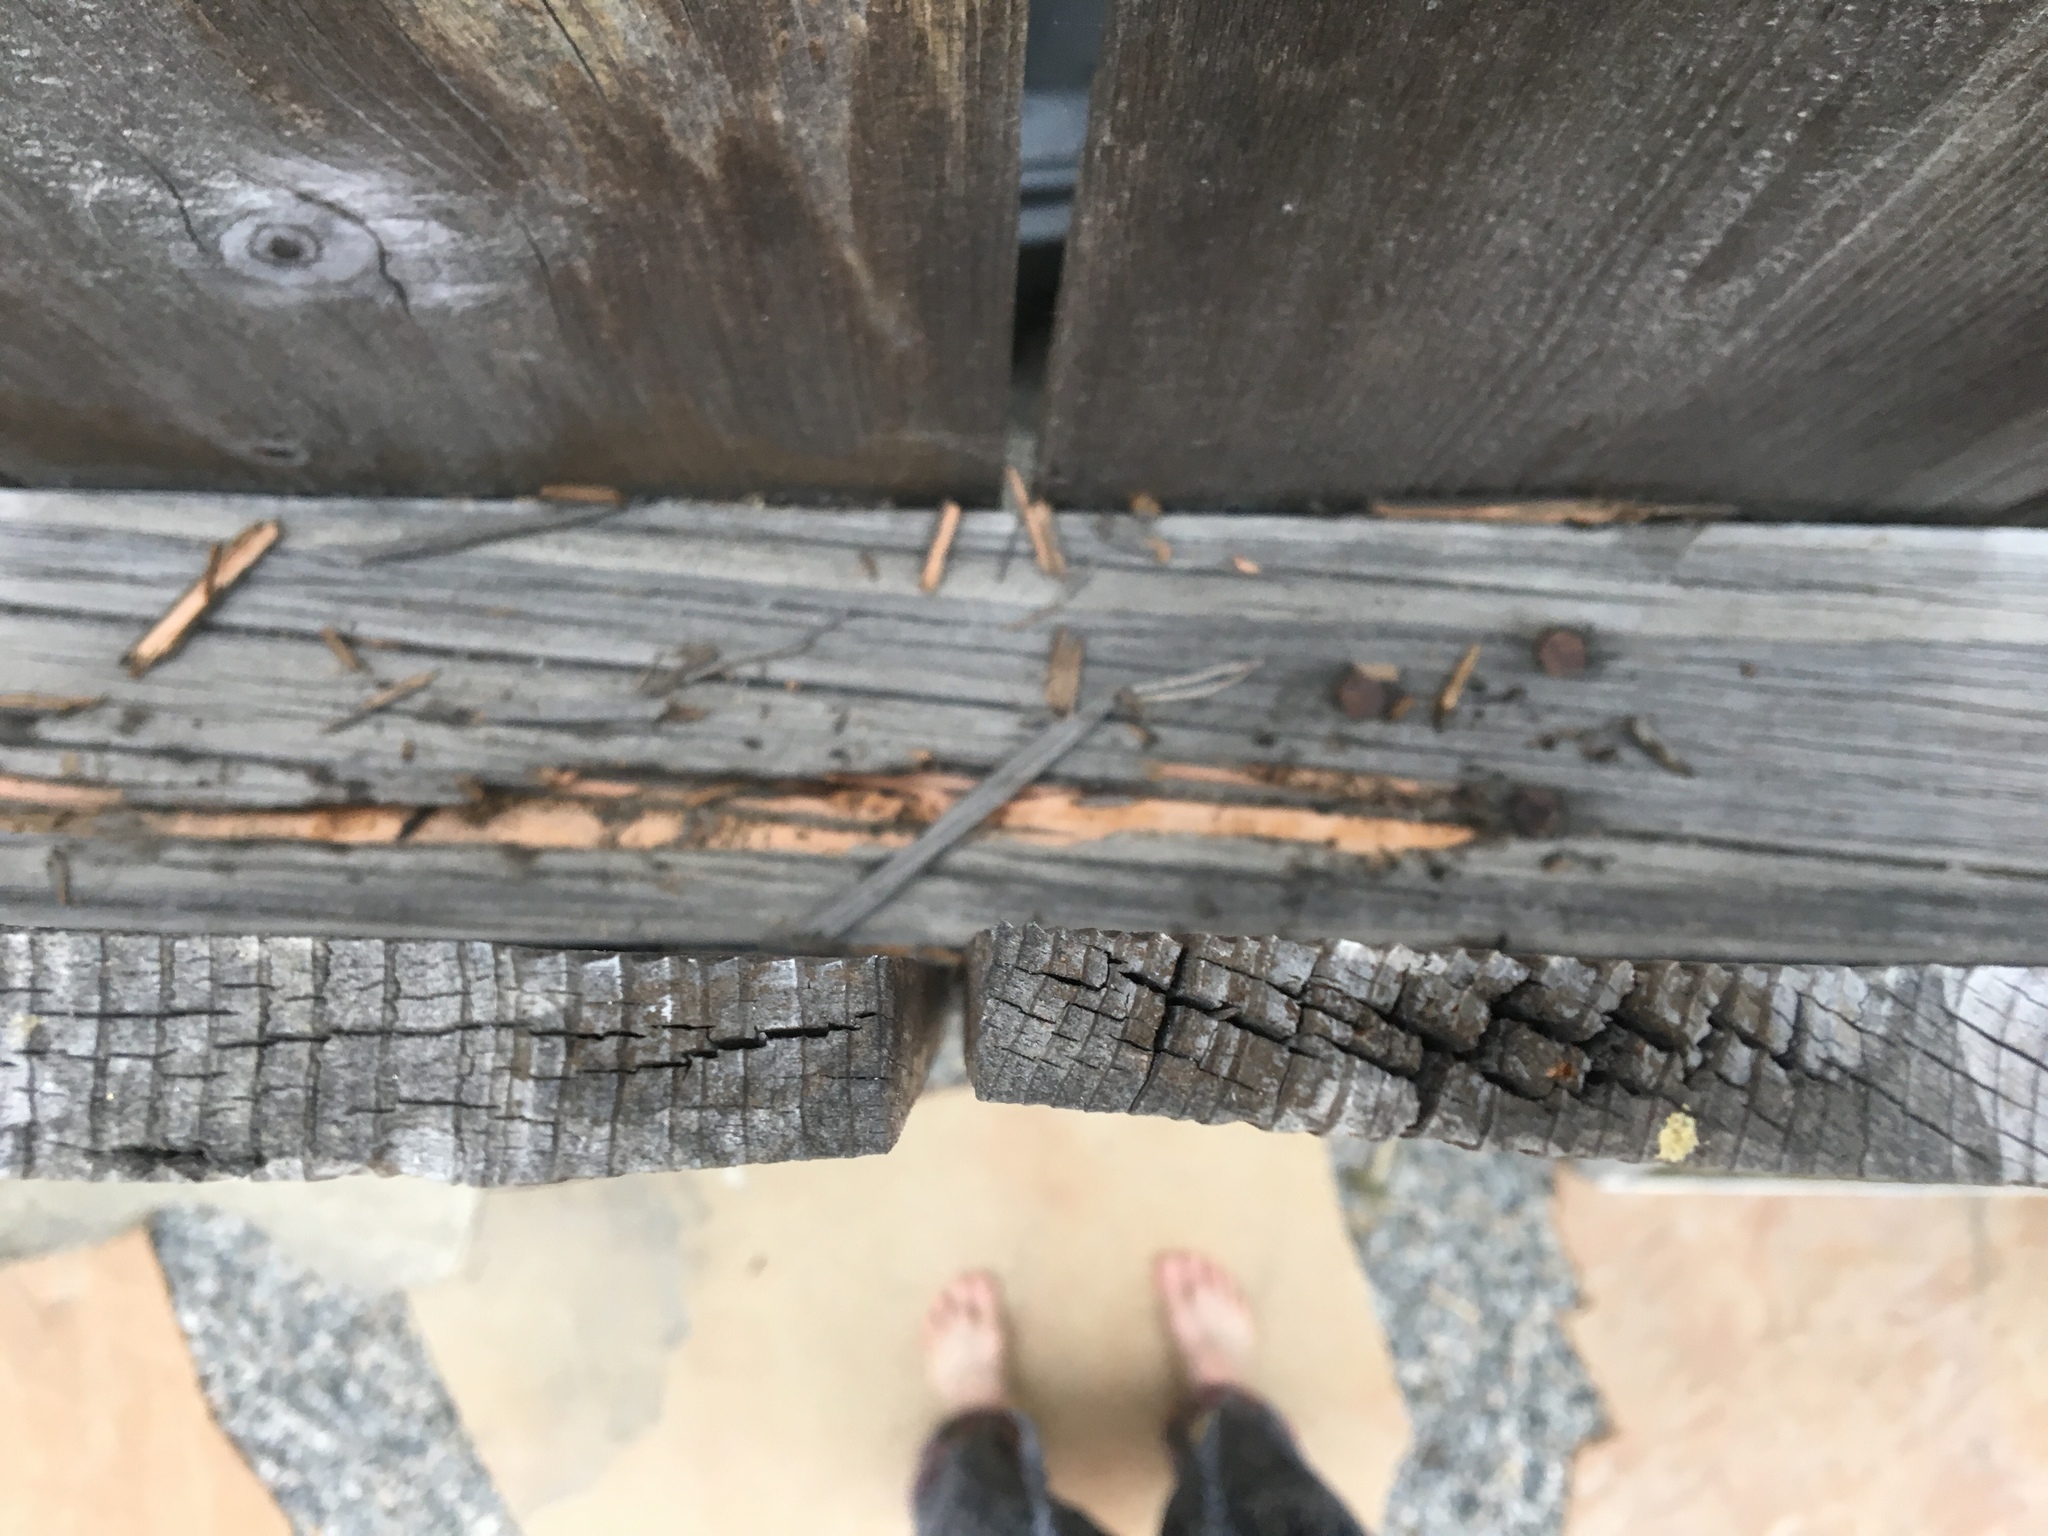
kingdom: Animalia
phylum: Chordata
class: Mammalia
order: Rodentia
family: Sciuridae
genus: Sciurus
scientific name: Sciurus niger
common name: Fox squirrel
